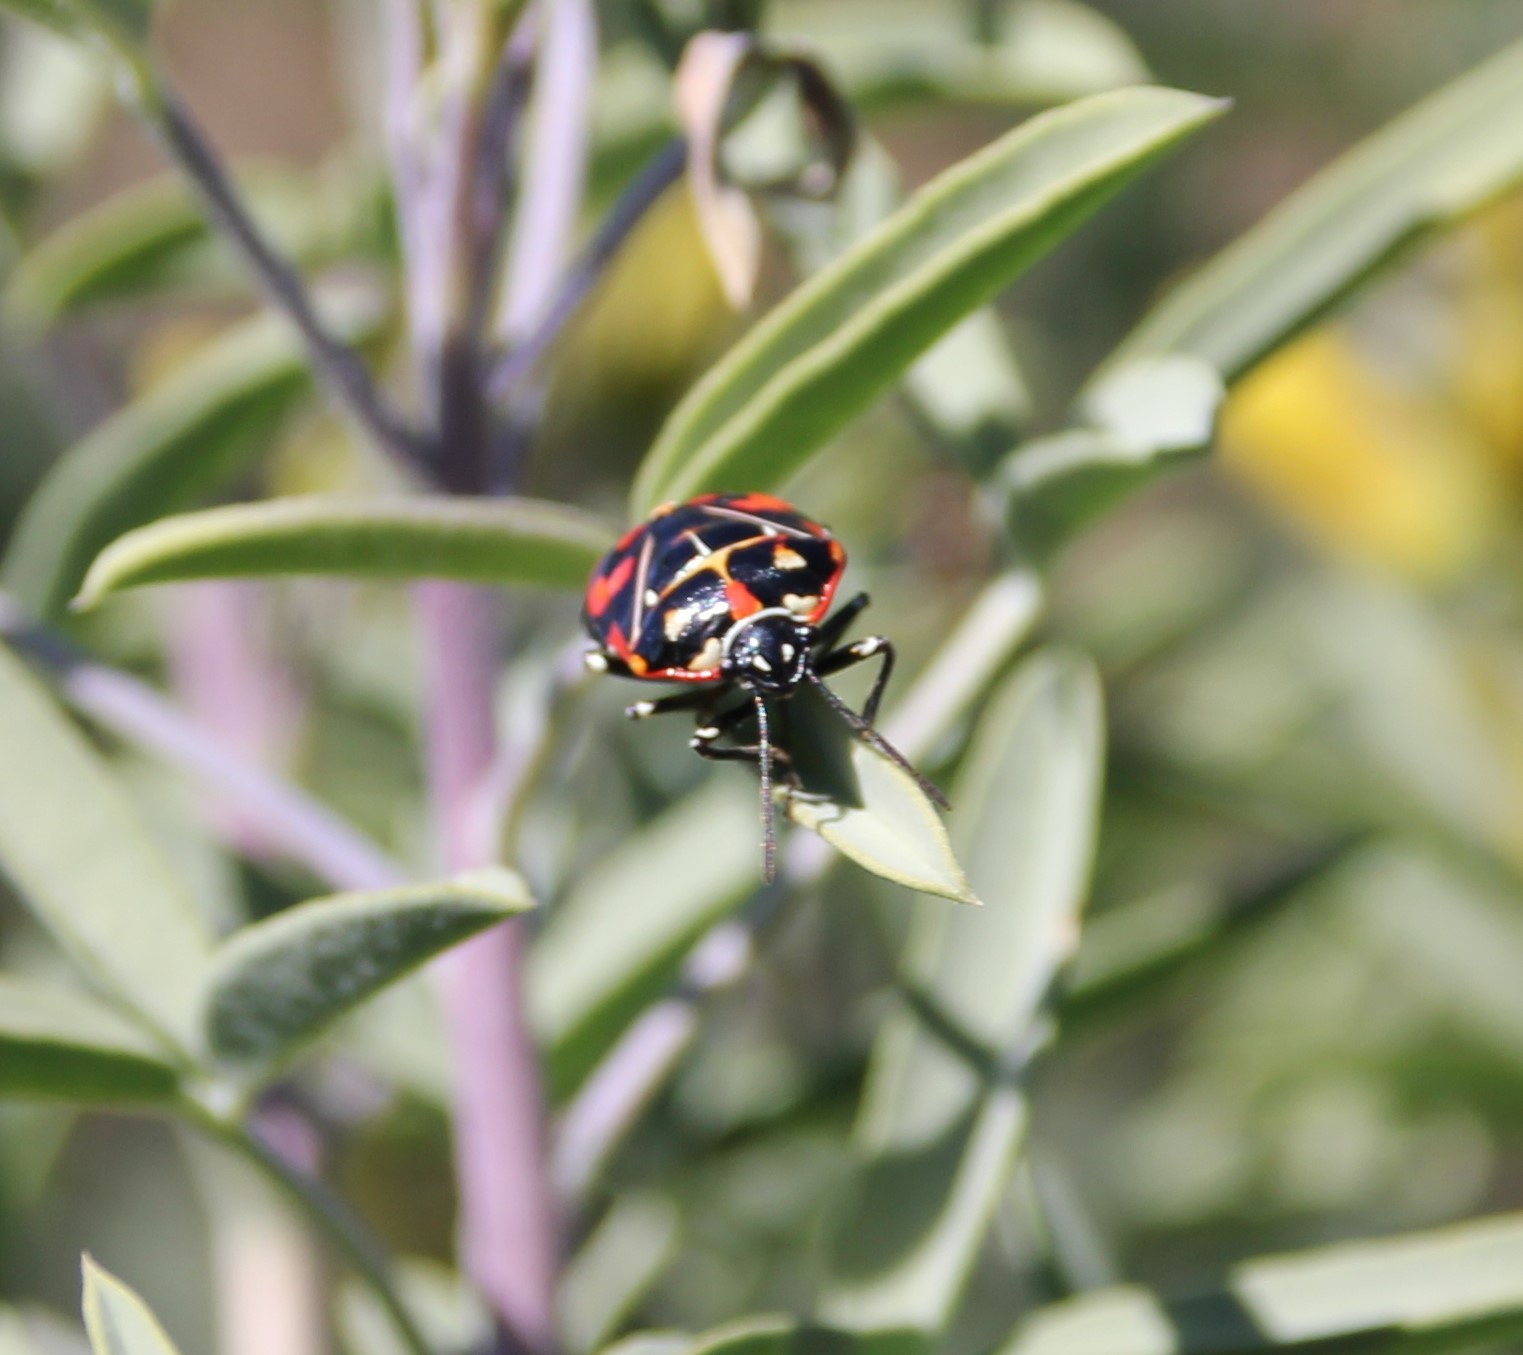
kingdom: Animalia
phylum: Arthropoda
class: Insecta
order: Hemiptera
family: Pentatomidae
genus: Murgantia
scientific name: Murgantia histrionica
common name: Harlequin bug
